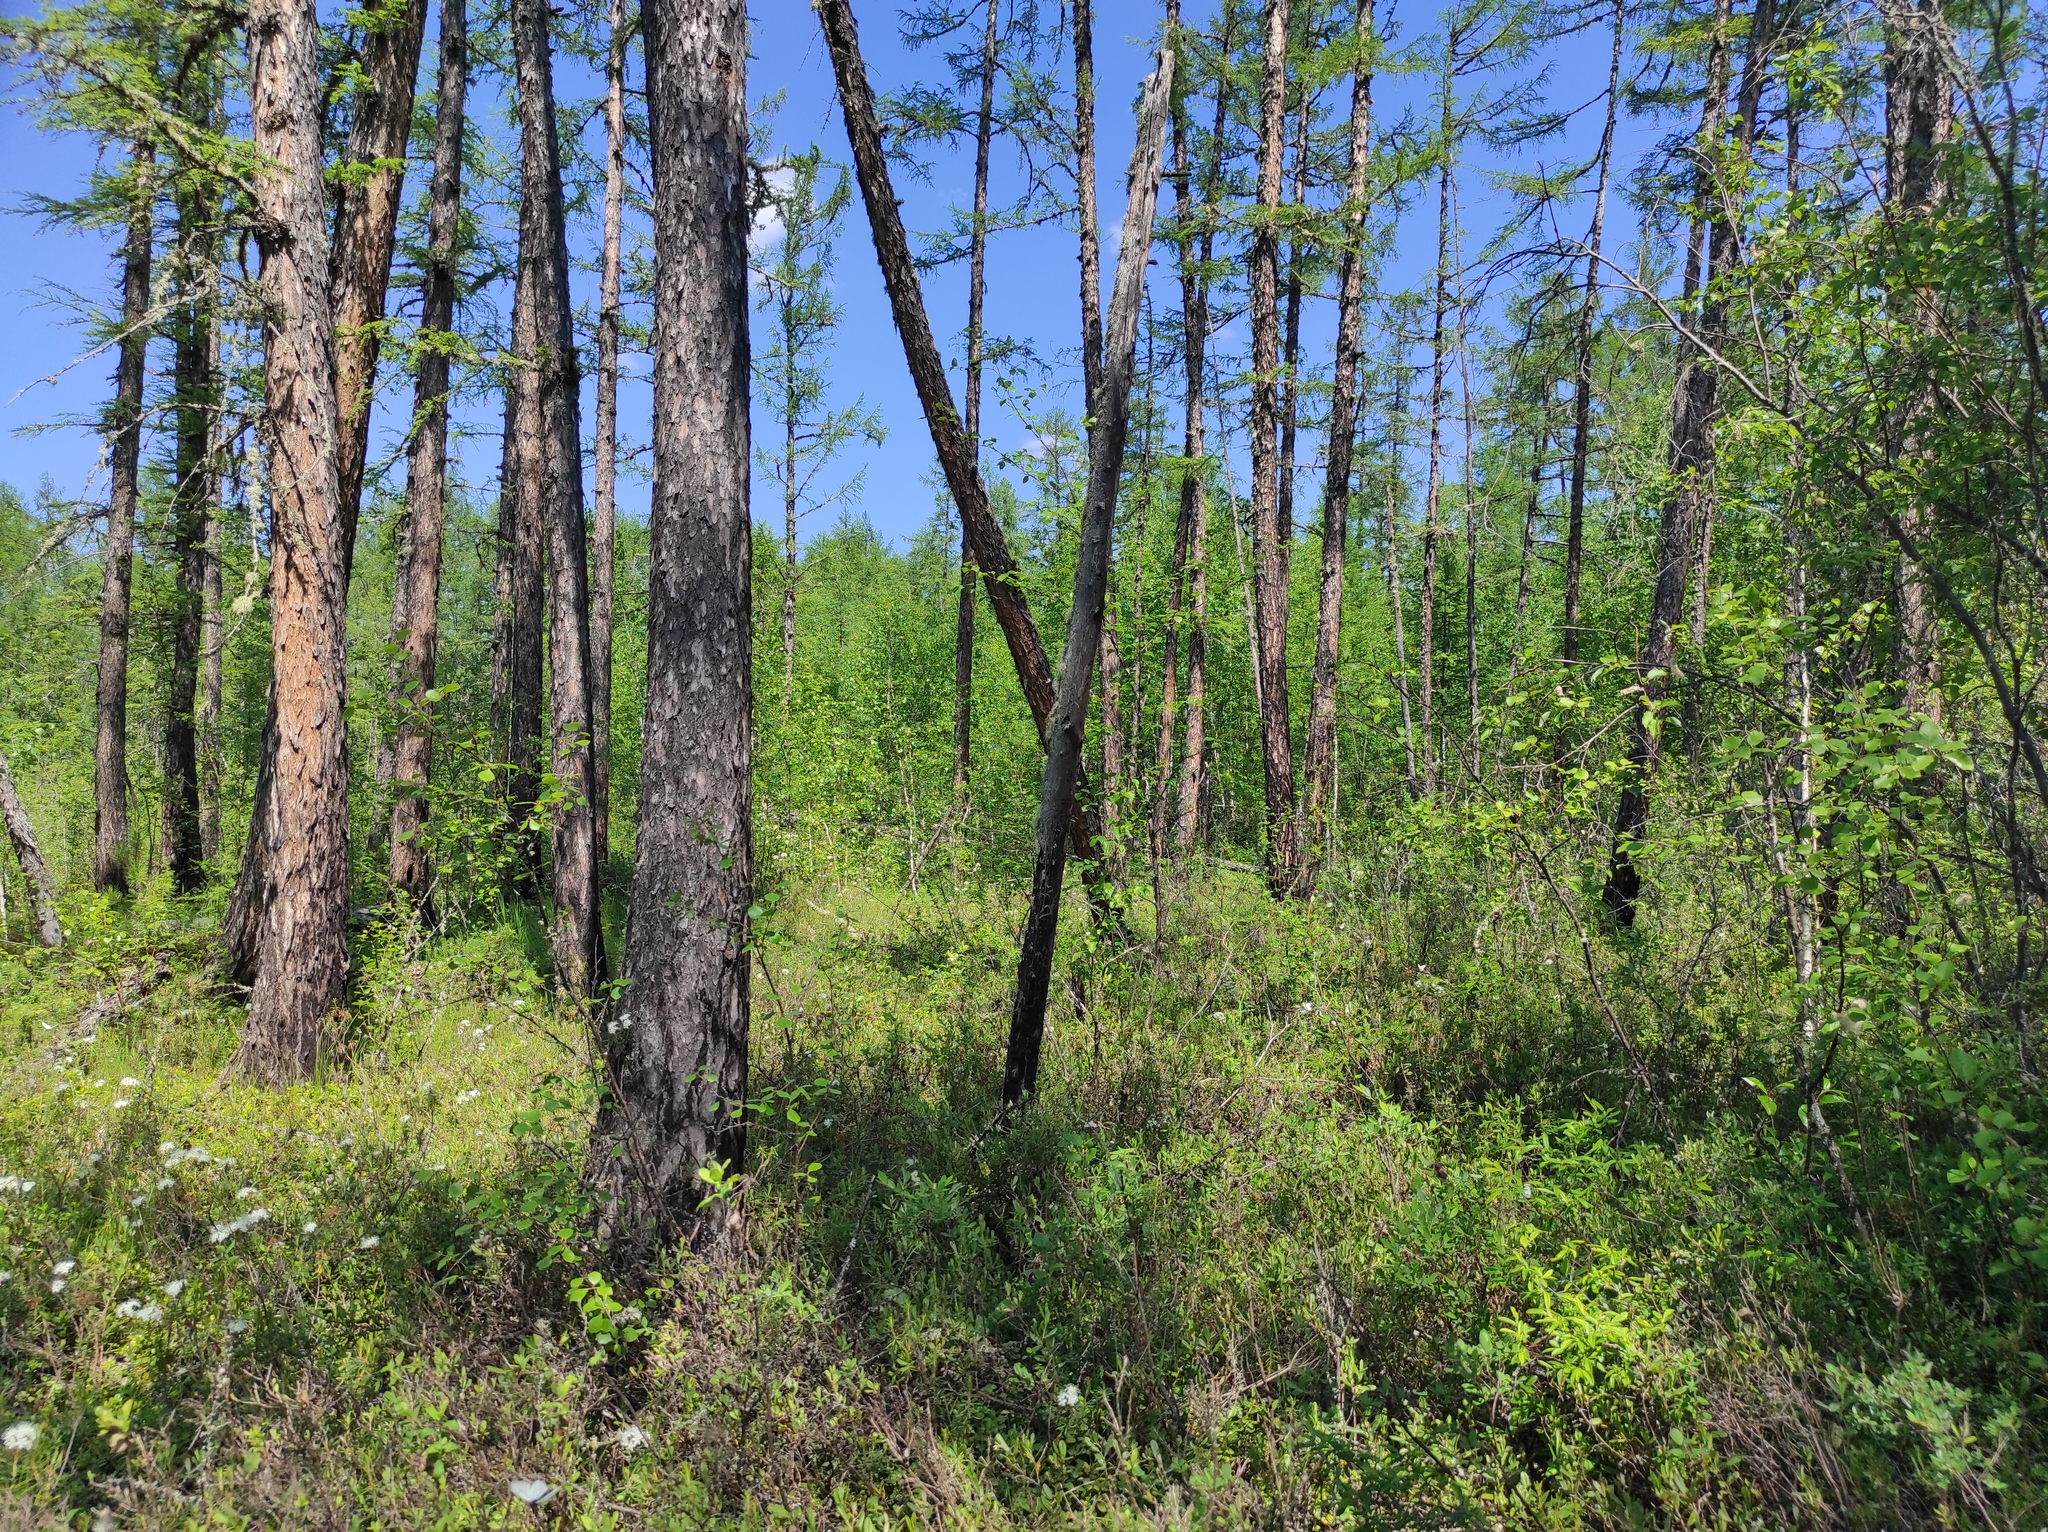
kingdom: Plantae
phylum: Tracheophyta
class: Magnoliopsida
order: Ericales
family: Ericaceae
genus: Rhododendron
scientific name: Rhododendron tomentosum
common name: Marsh labrador tea
